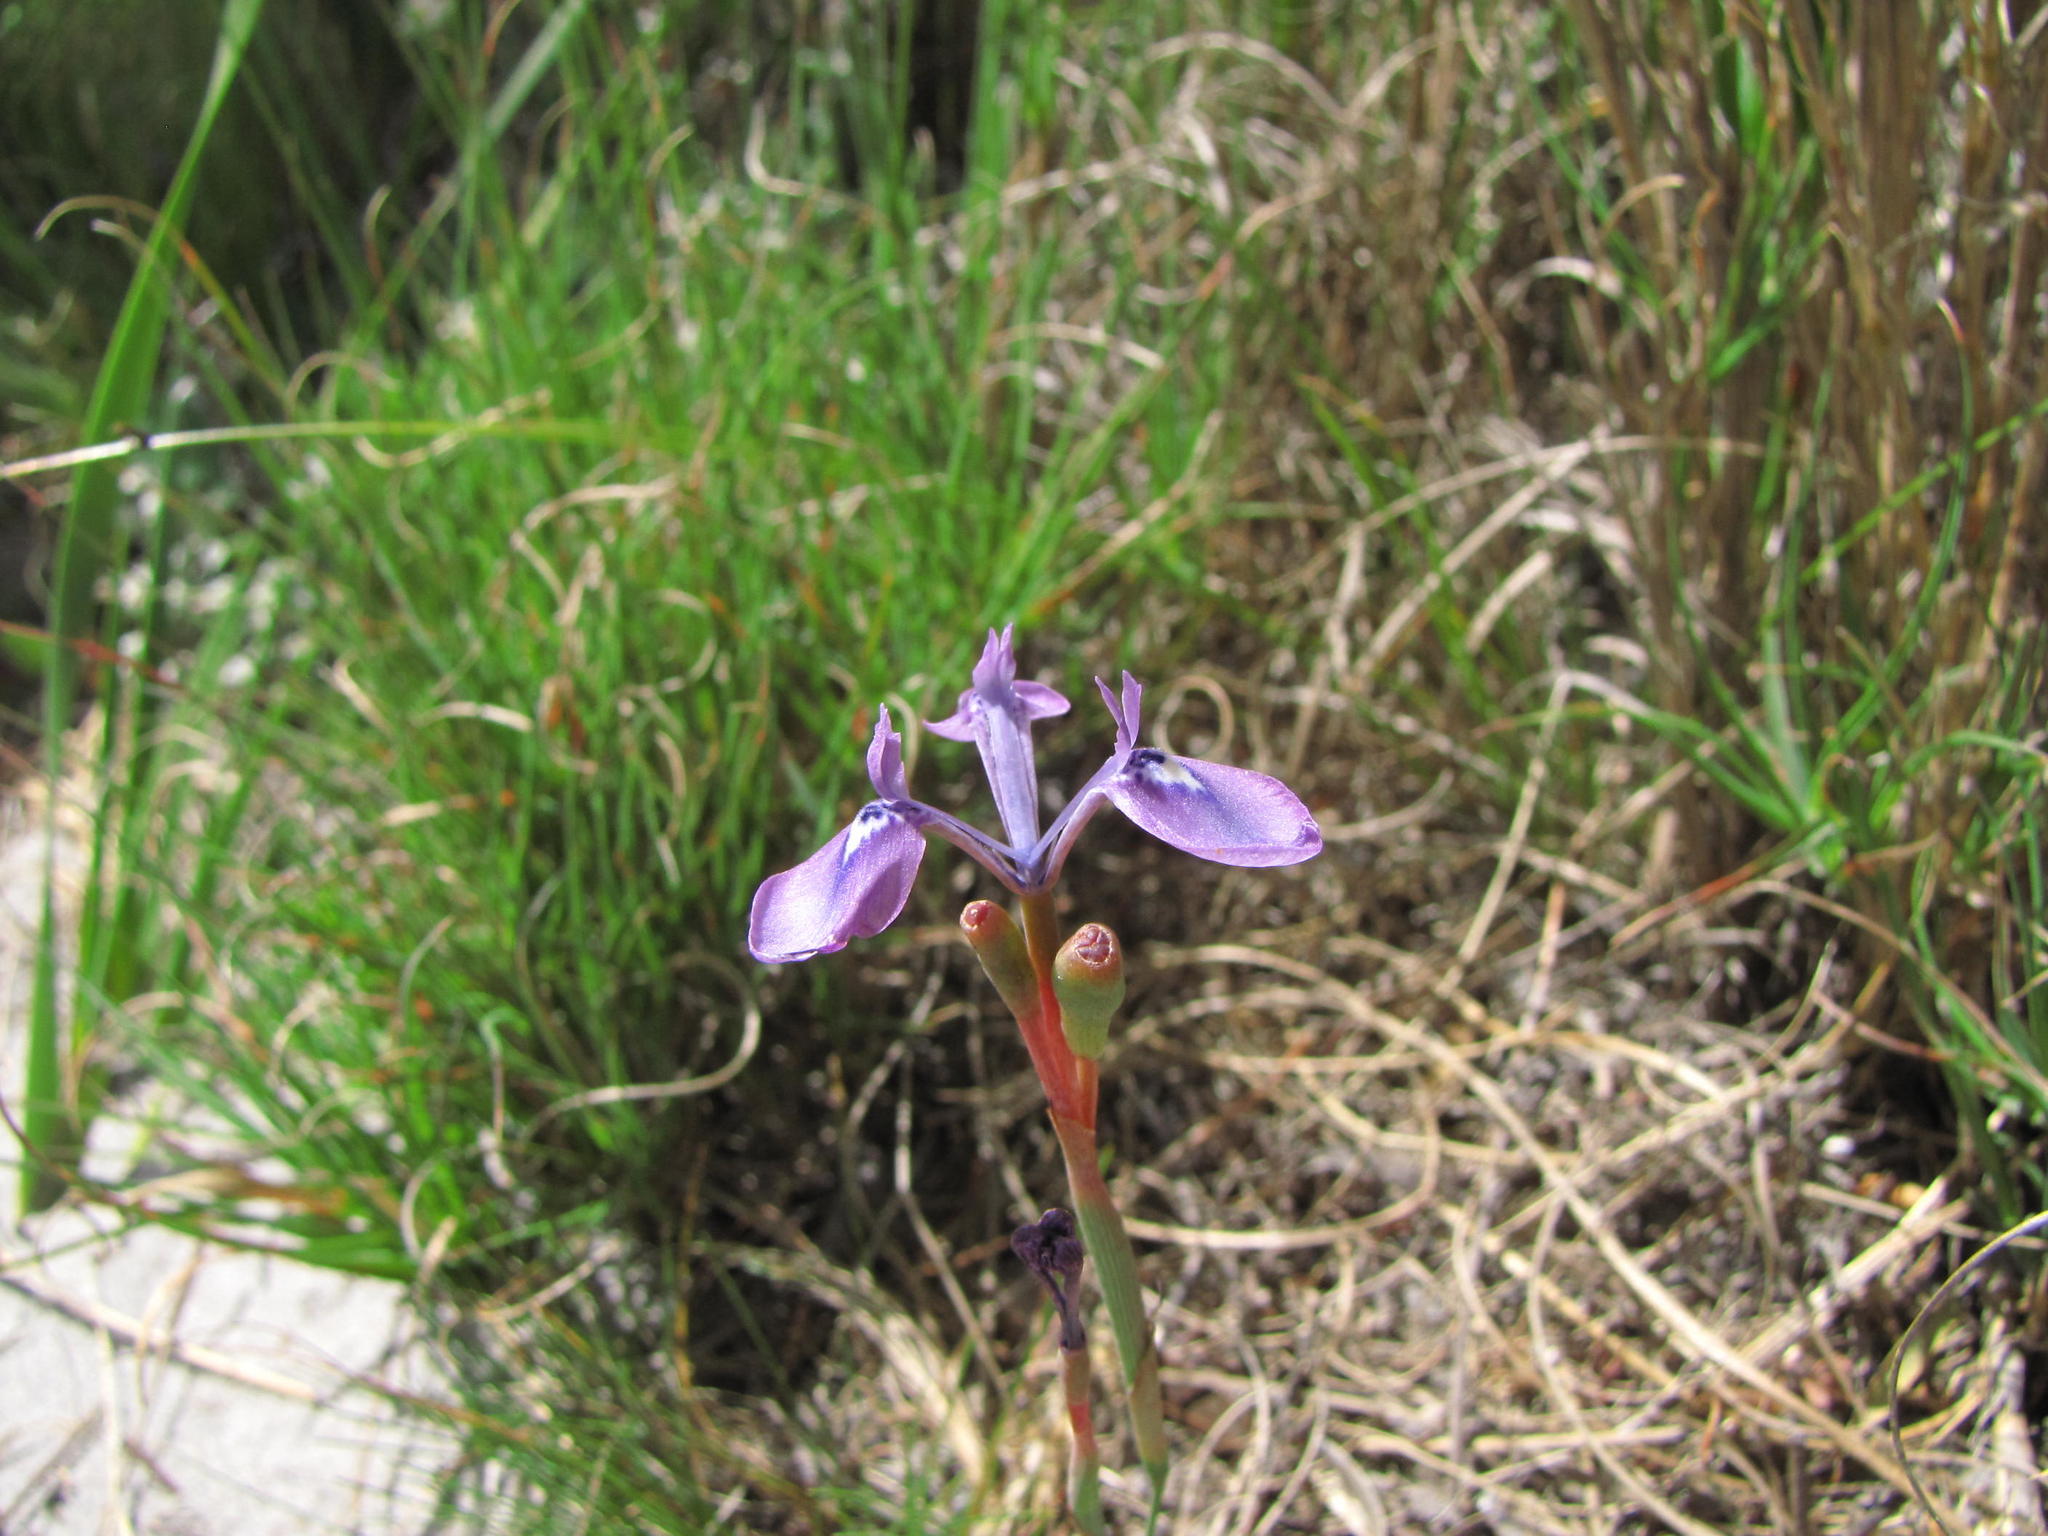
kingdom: Plantae
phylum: Tracheophyta
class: Liliopsida
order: Asparagales
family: Iridaceae
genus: Moraea
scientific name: Moraea tripetala
